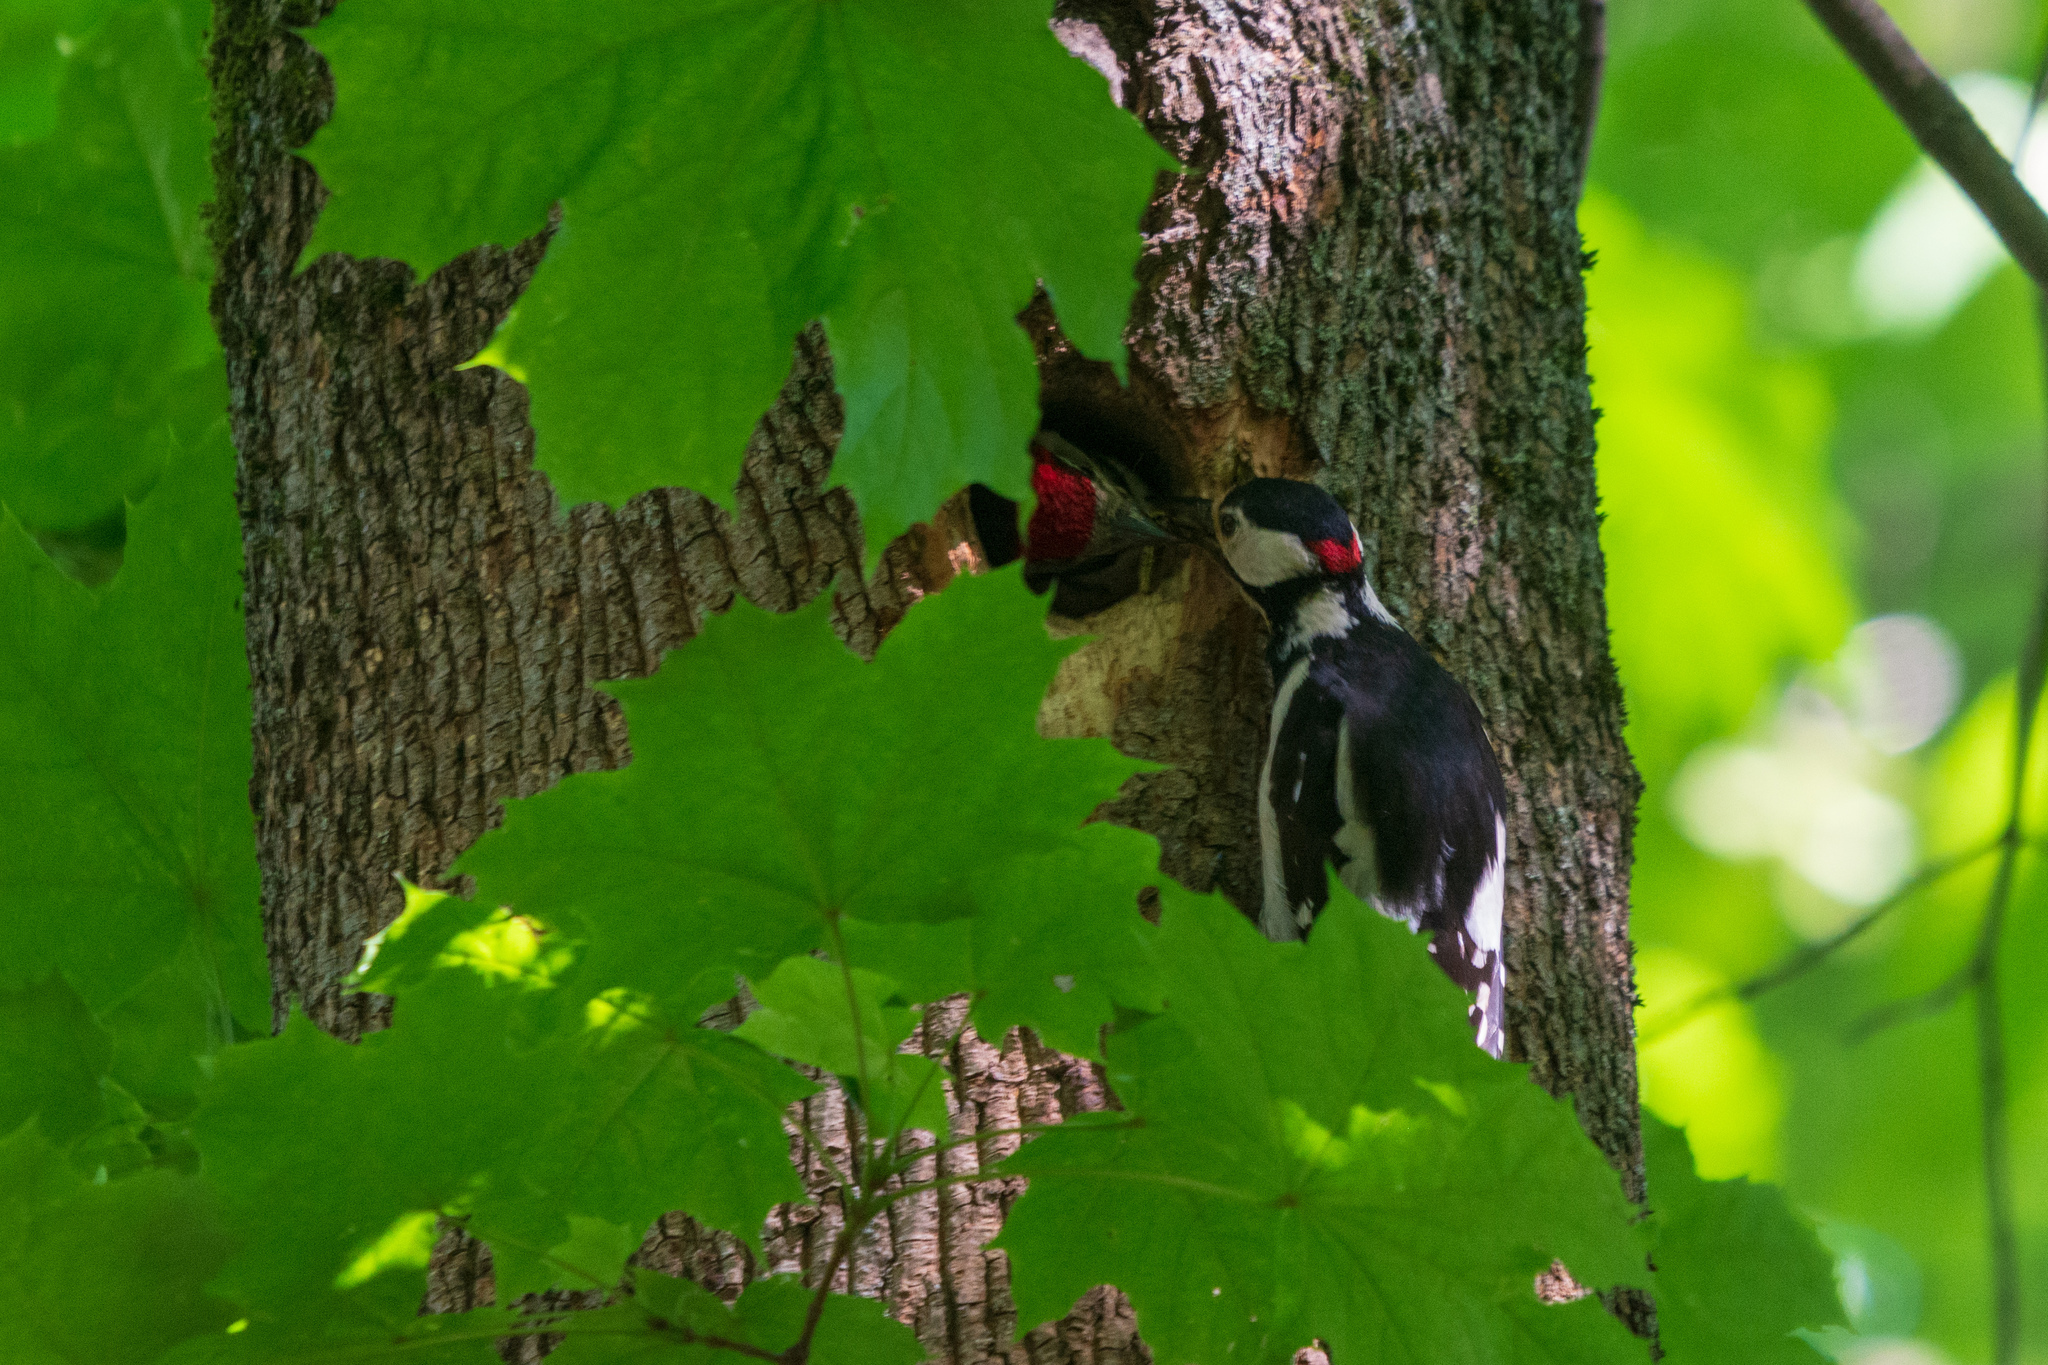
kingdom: Animalia
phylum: Chordata
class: Aves
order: Piciformes
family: Picidae
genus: Dendrocopos
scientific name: Dendrocopos major
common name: Great spotted woodpecker
